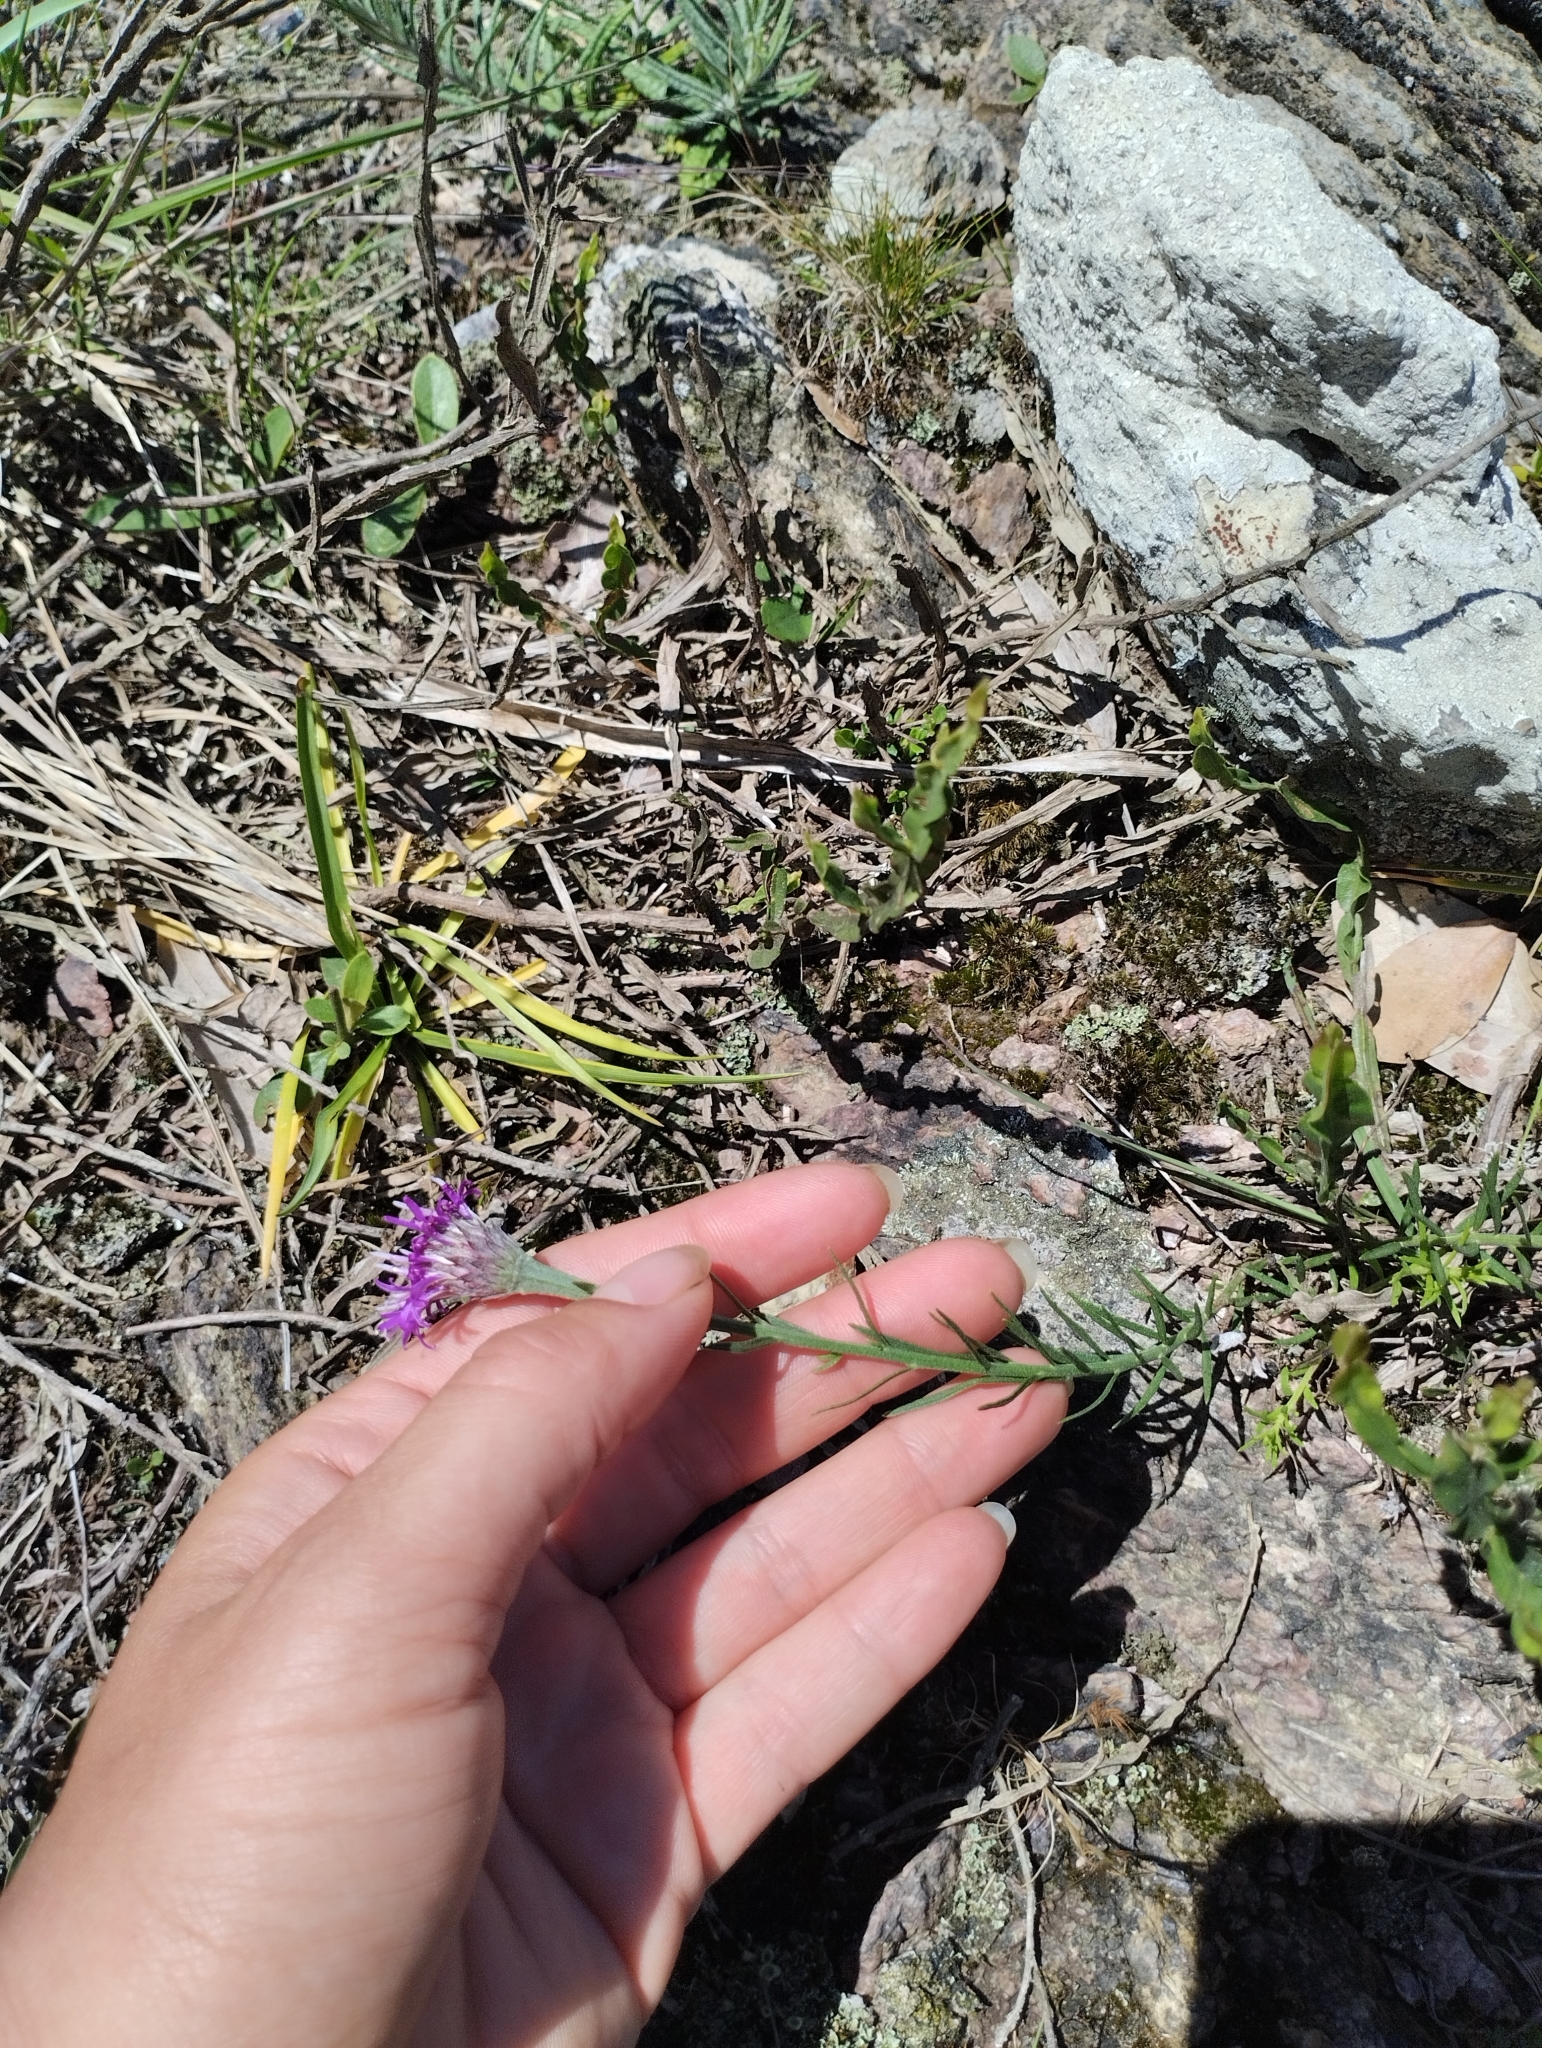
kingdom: Plantae
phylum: Tracheophyta
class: Magnoliopsida
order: Asterales
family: Asteraceae
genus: Lessingianthus
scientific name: Lessingianthus brevifolius
